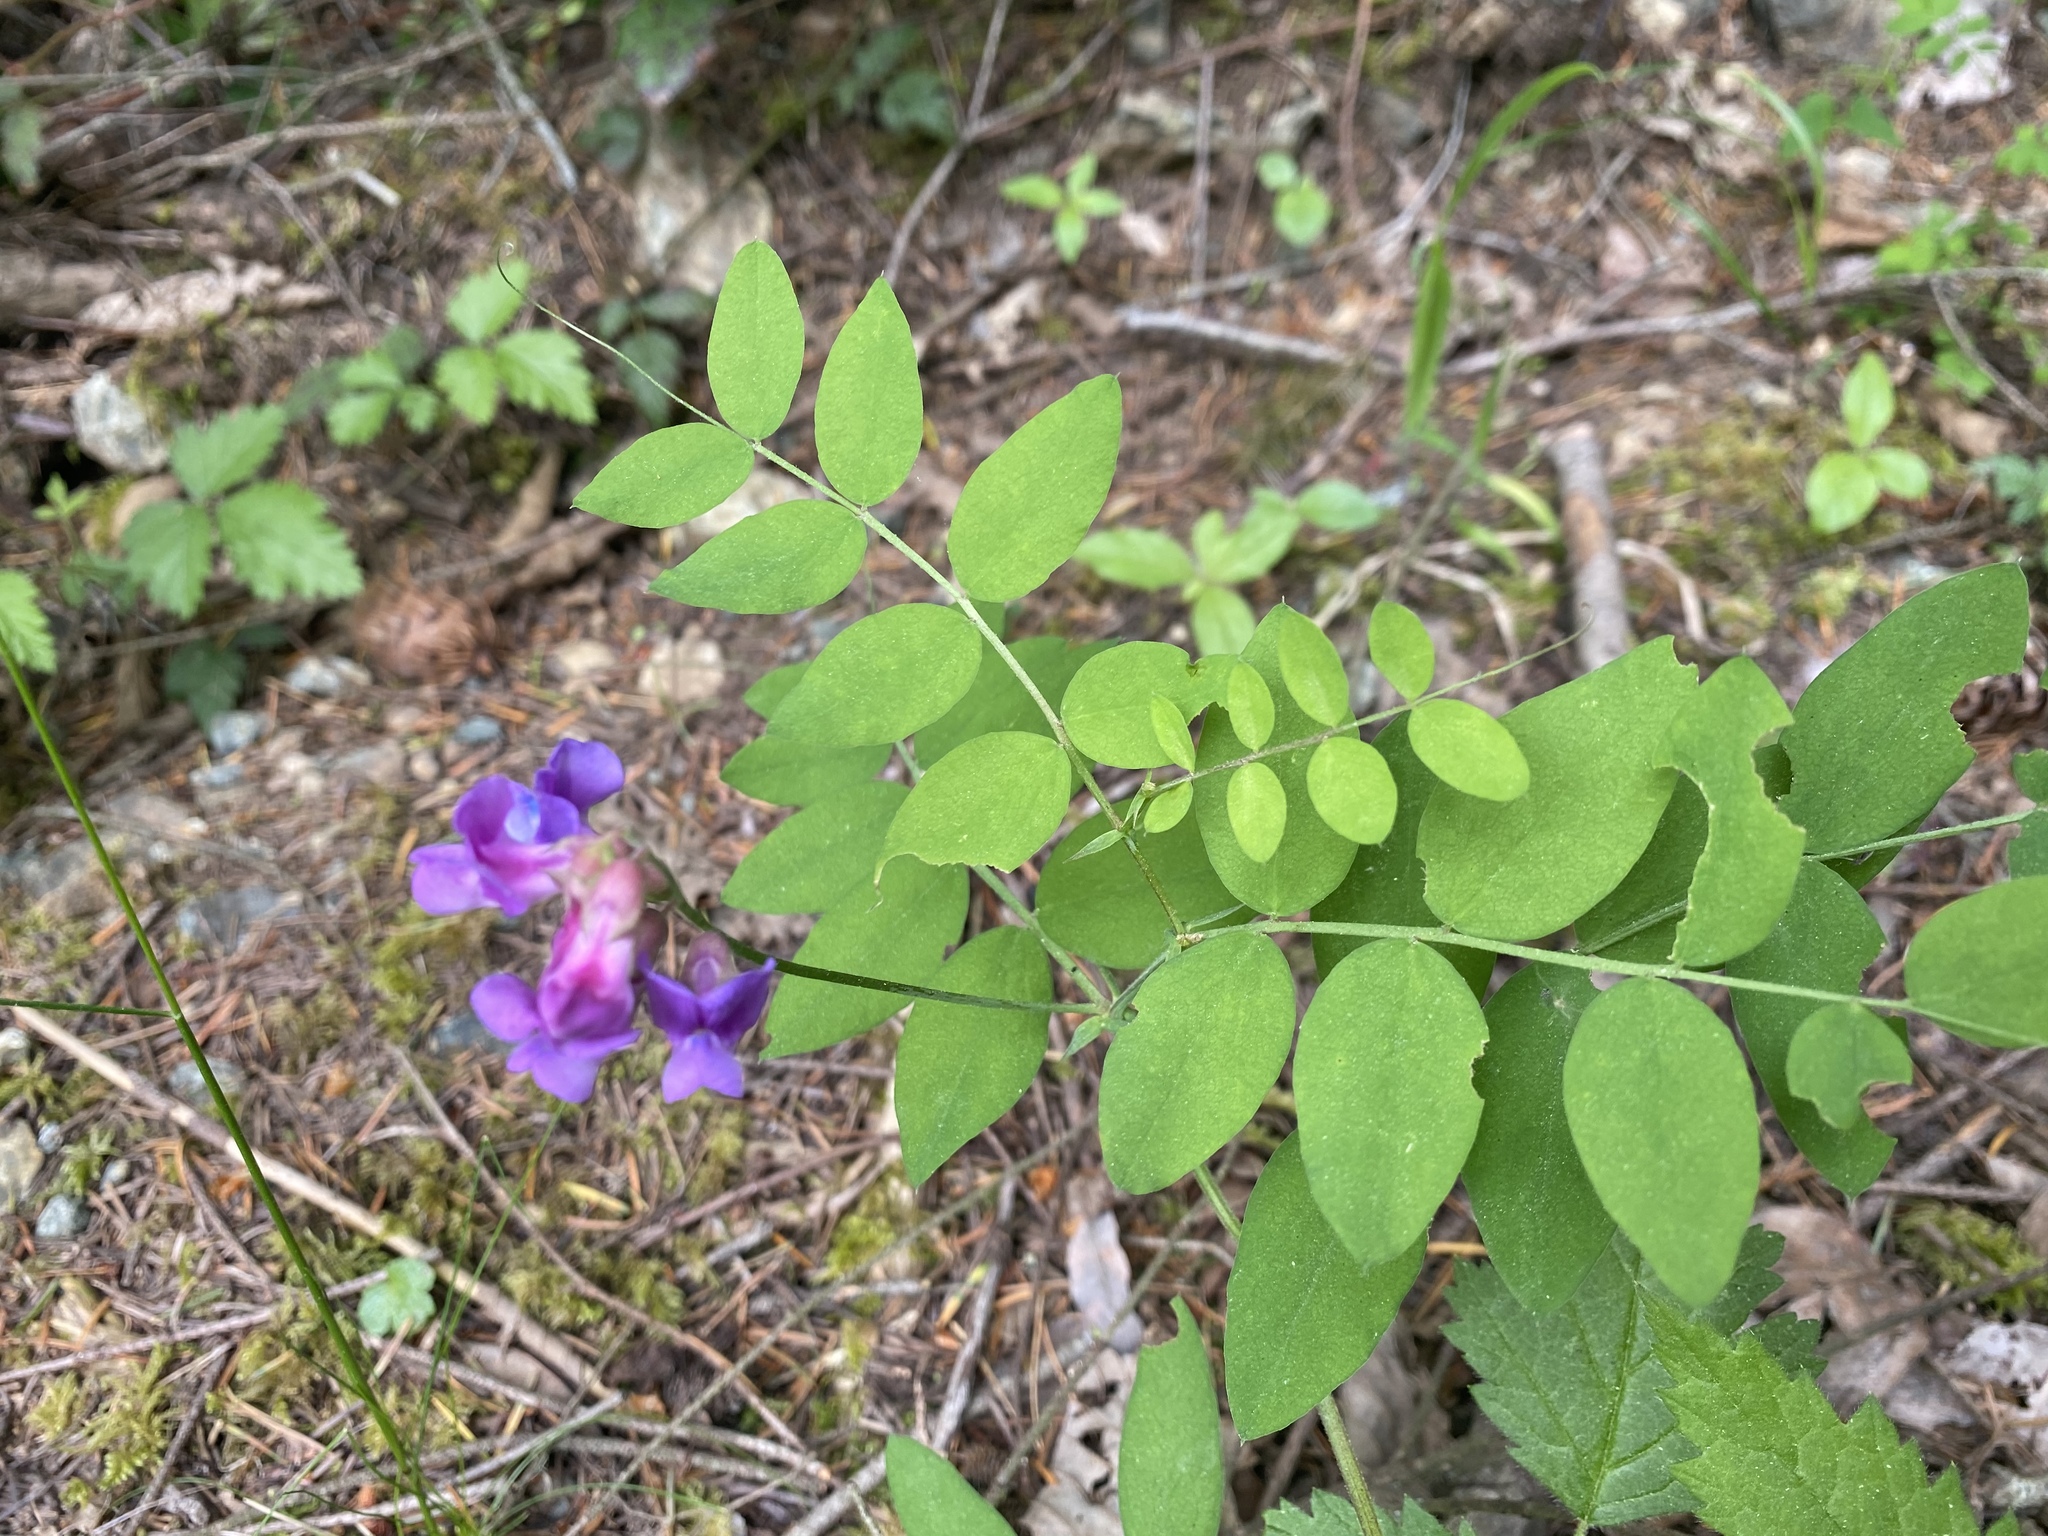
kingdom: Plantae
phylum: Tracheophyta
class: Magnoliopsida
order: Fabales
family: Fabaceae
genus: Lathyrus
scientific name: Lathyrus nevadensis
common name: Sierra nevada peavine
